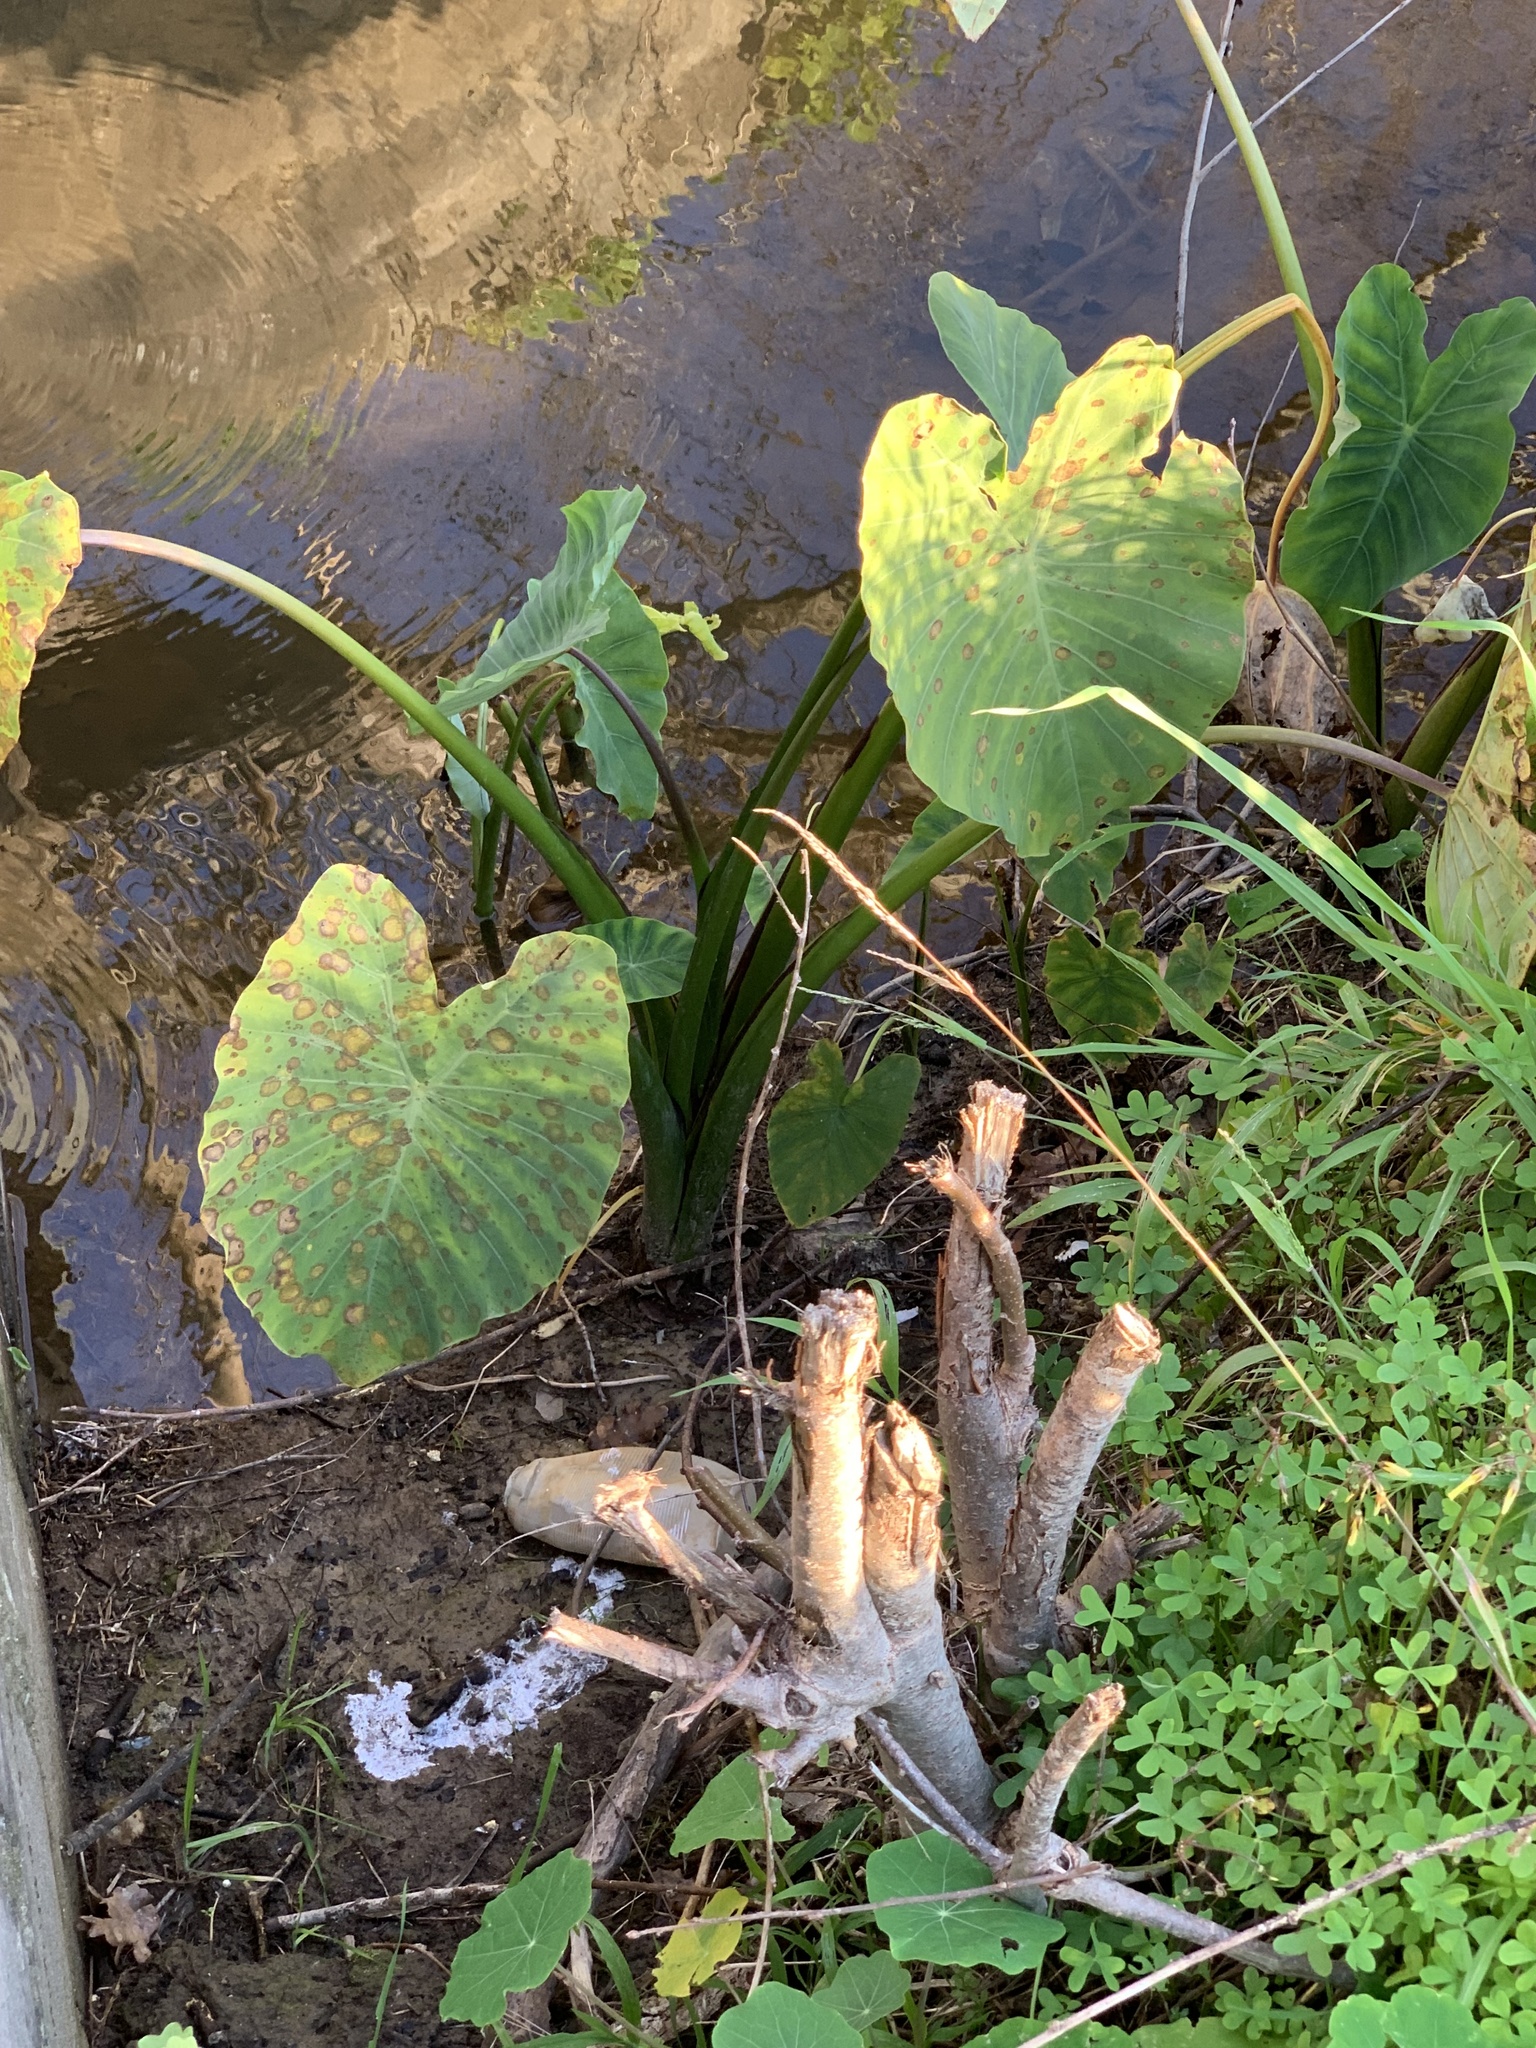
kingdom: Plantae
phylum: Tracheophyta
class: Liliopsida
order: Alismatales
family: Araceae
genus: Colocasia
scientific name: Colocasia esculenta
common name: Taro
